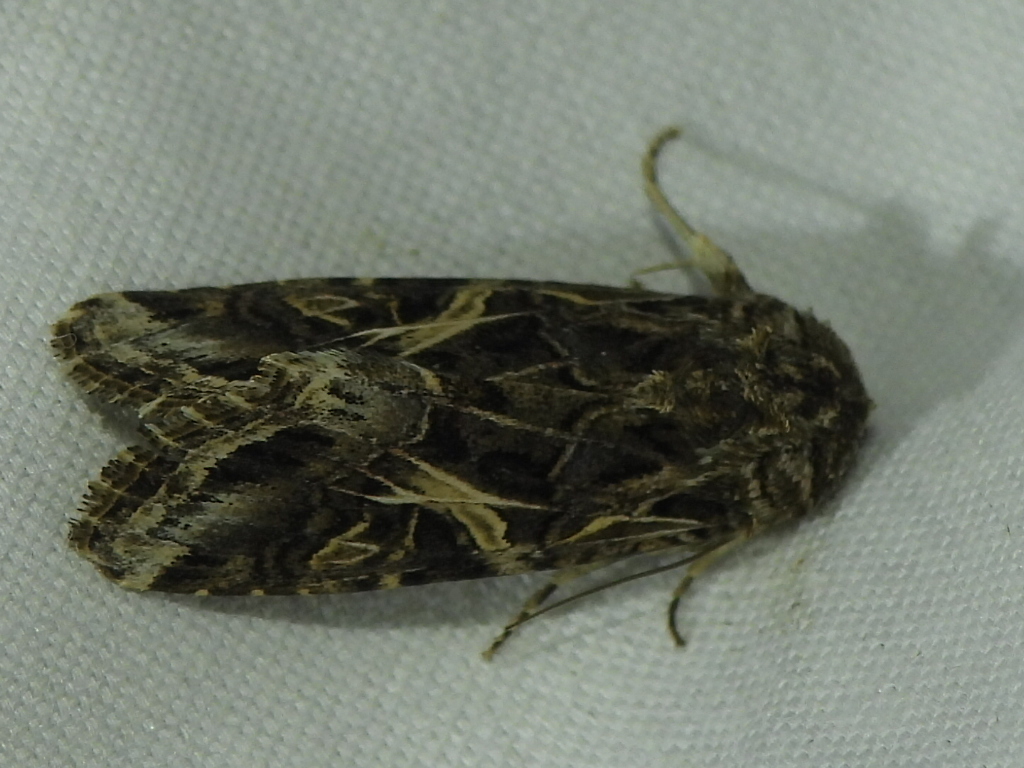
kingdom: Animalia
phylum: Arthropoda
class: Insecta
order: Lepidoptera
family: Noctuidae
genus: Spodoptera
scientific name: Spodoptera ornithogalli
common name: Yellow-striped armyworm
